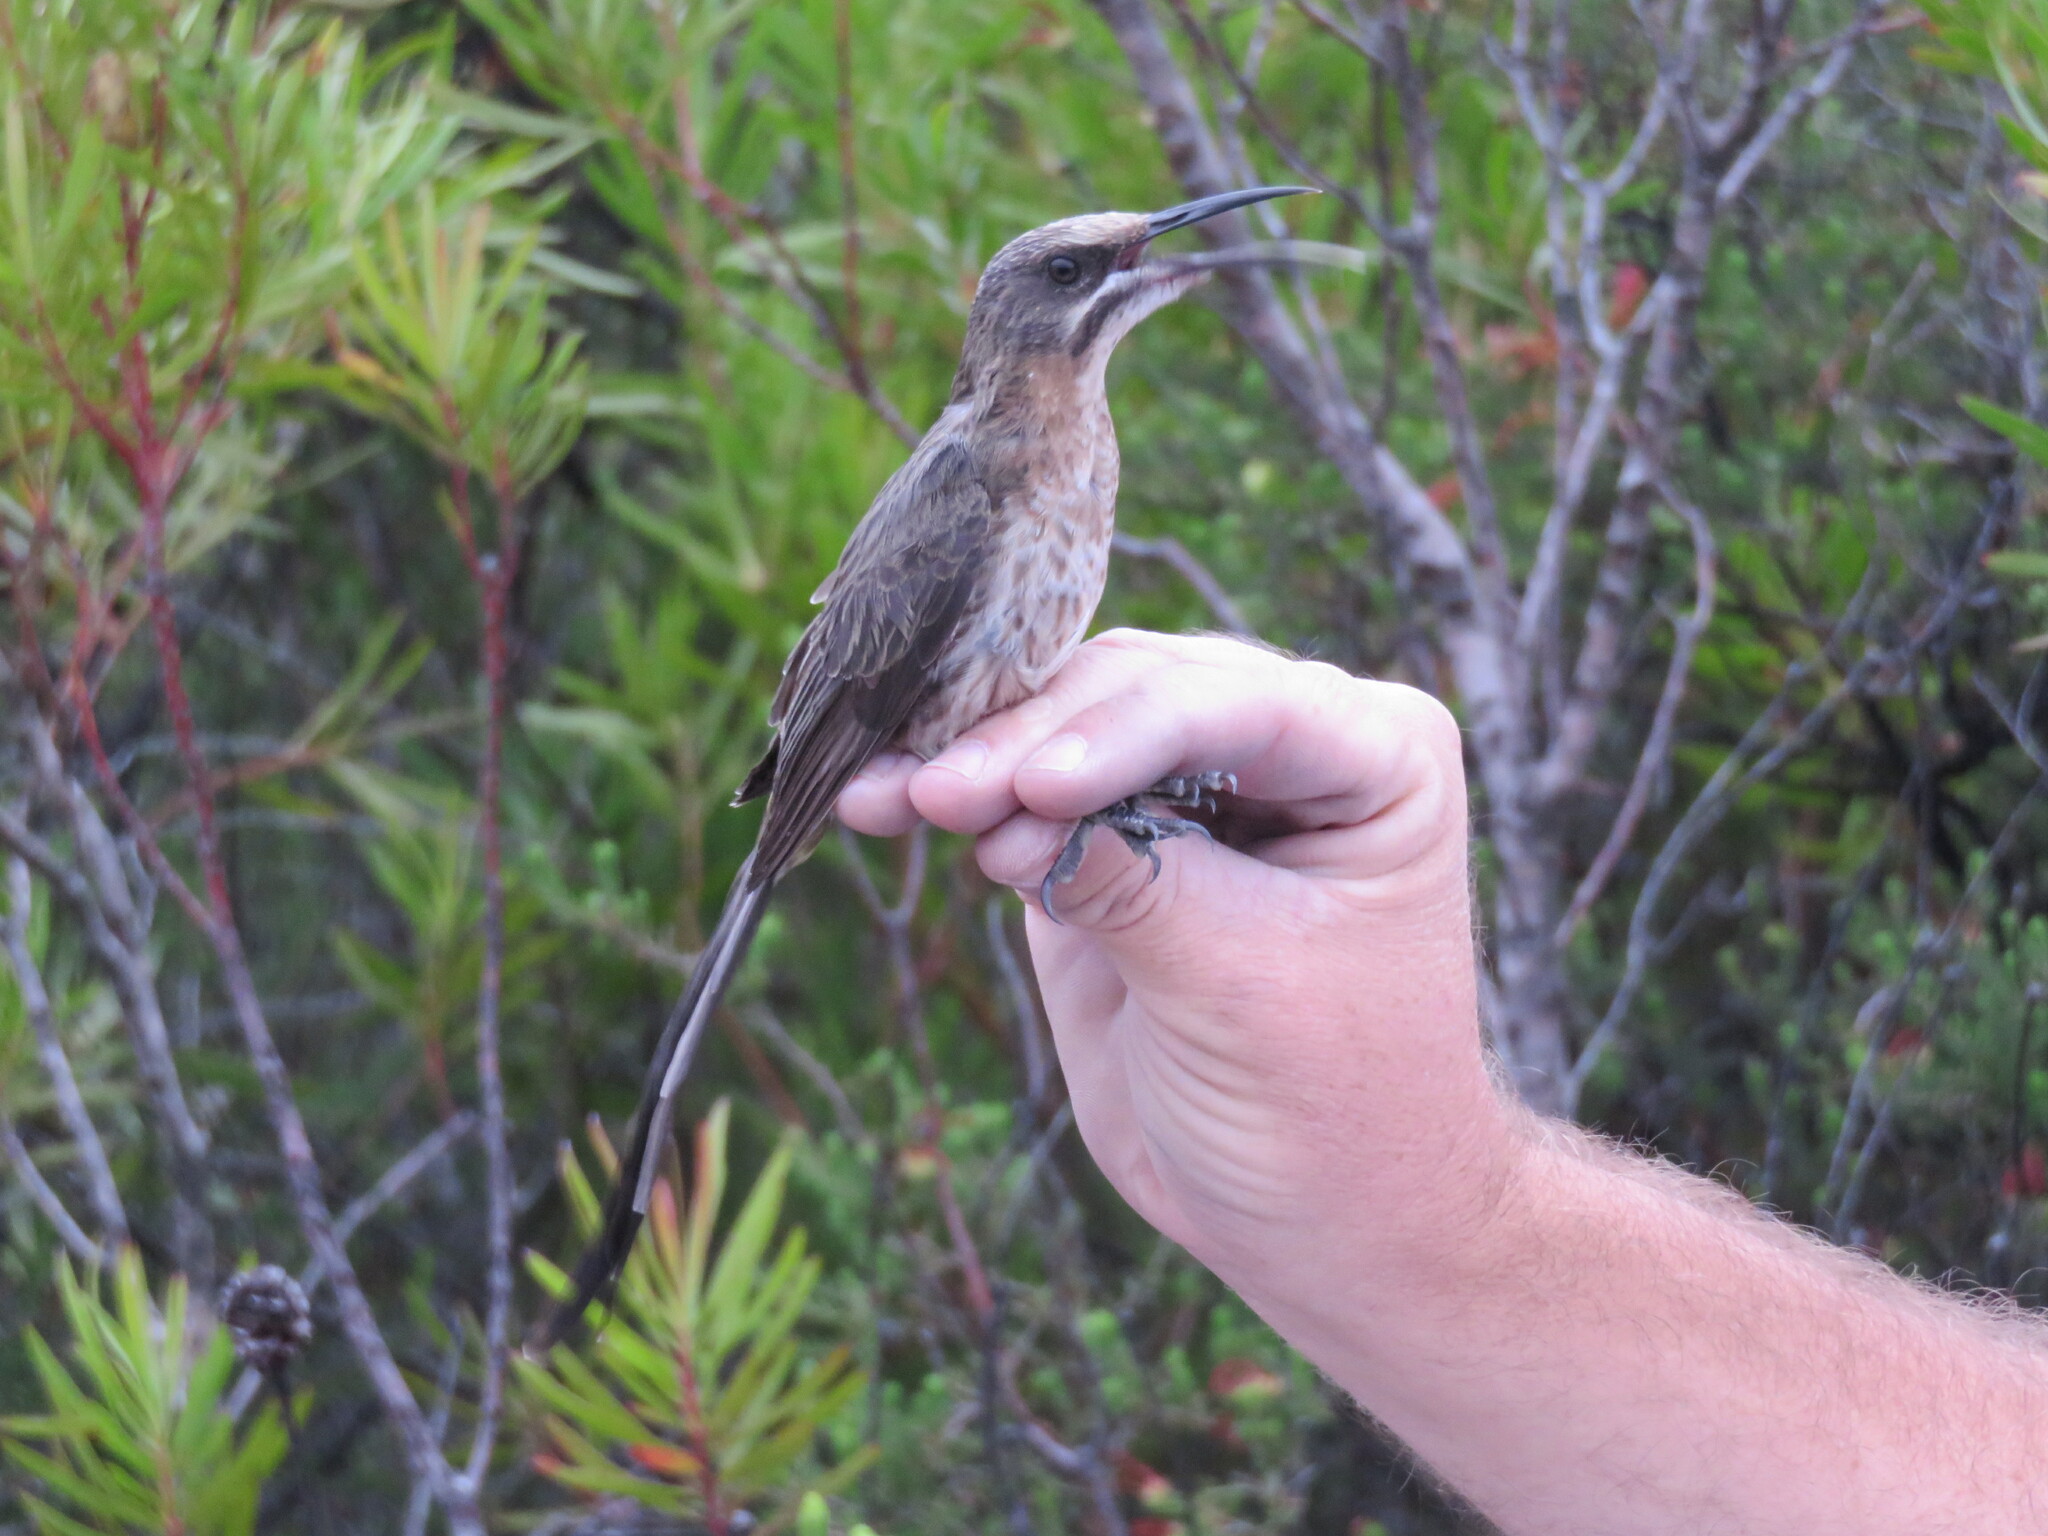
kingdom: Animalia
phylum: Chordata
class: Aves
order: Passeriformes
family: Promeropidae
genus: Promerops
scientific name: Promerops cafer
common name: Cape sugarbird
